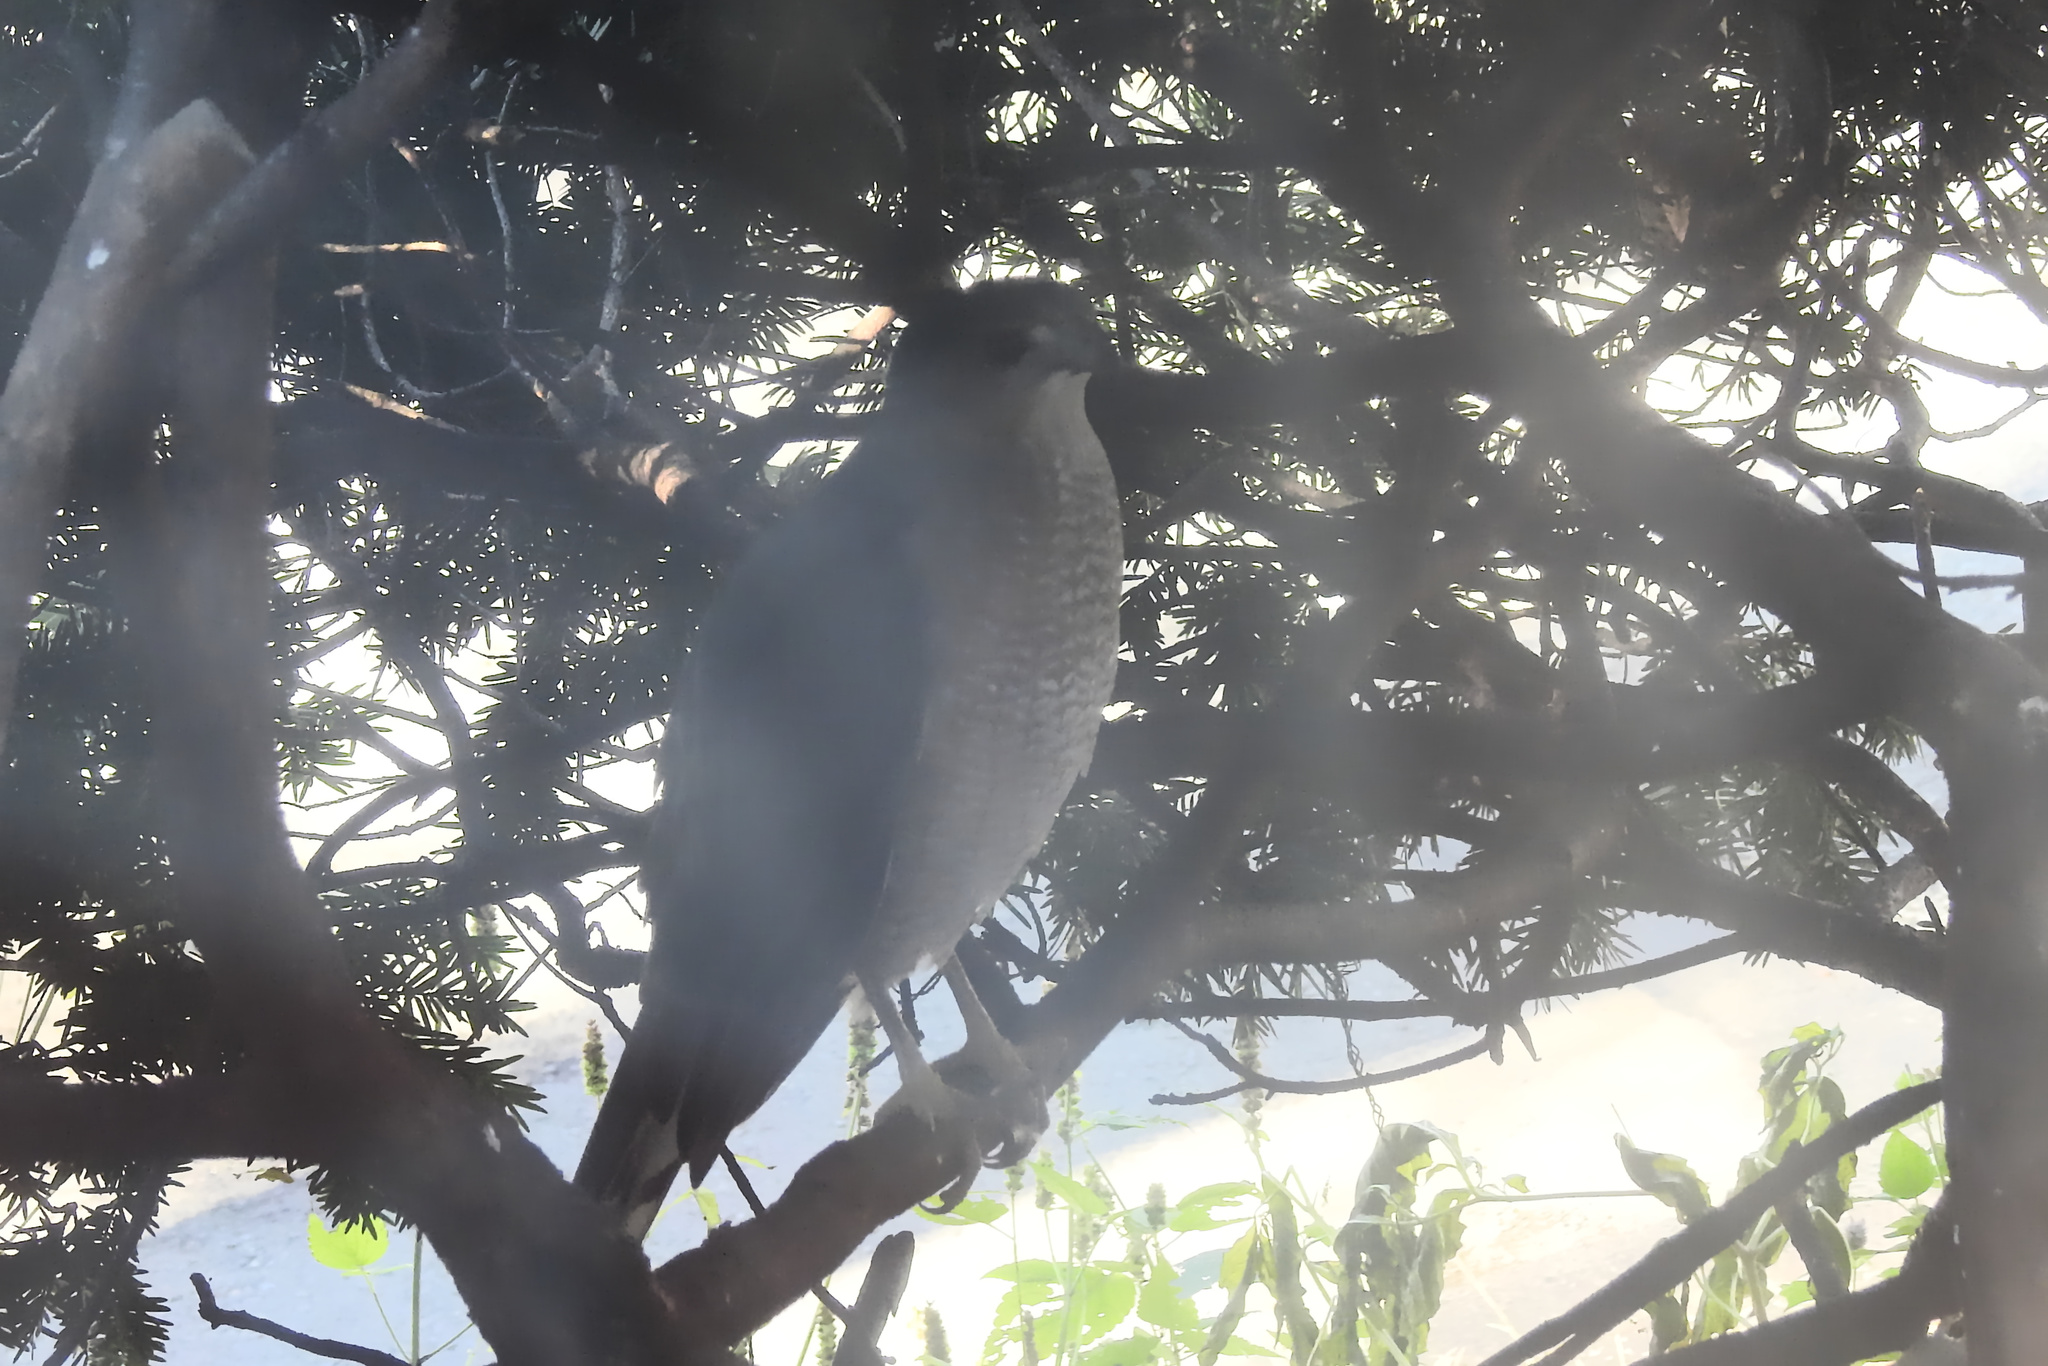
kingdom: Animalia
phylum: Chordata
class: Aves
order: Accipitriformes
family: Accipitridae
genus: Accipiter
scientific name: Accipiter cooperii
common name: Cooper's hawk
